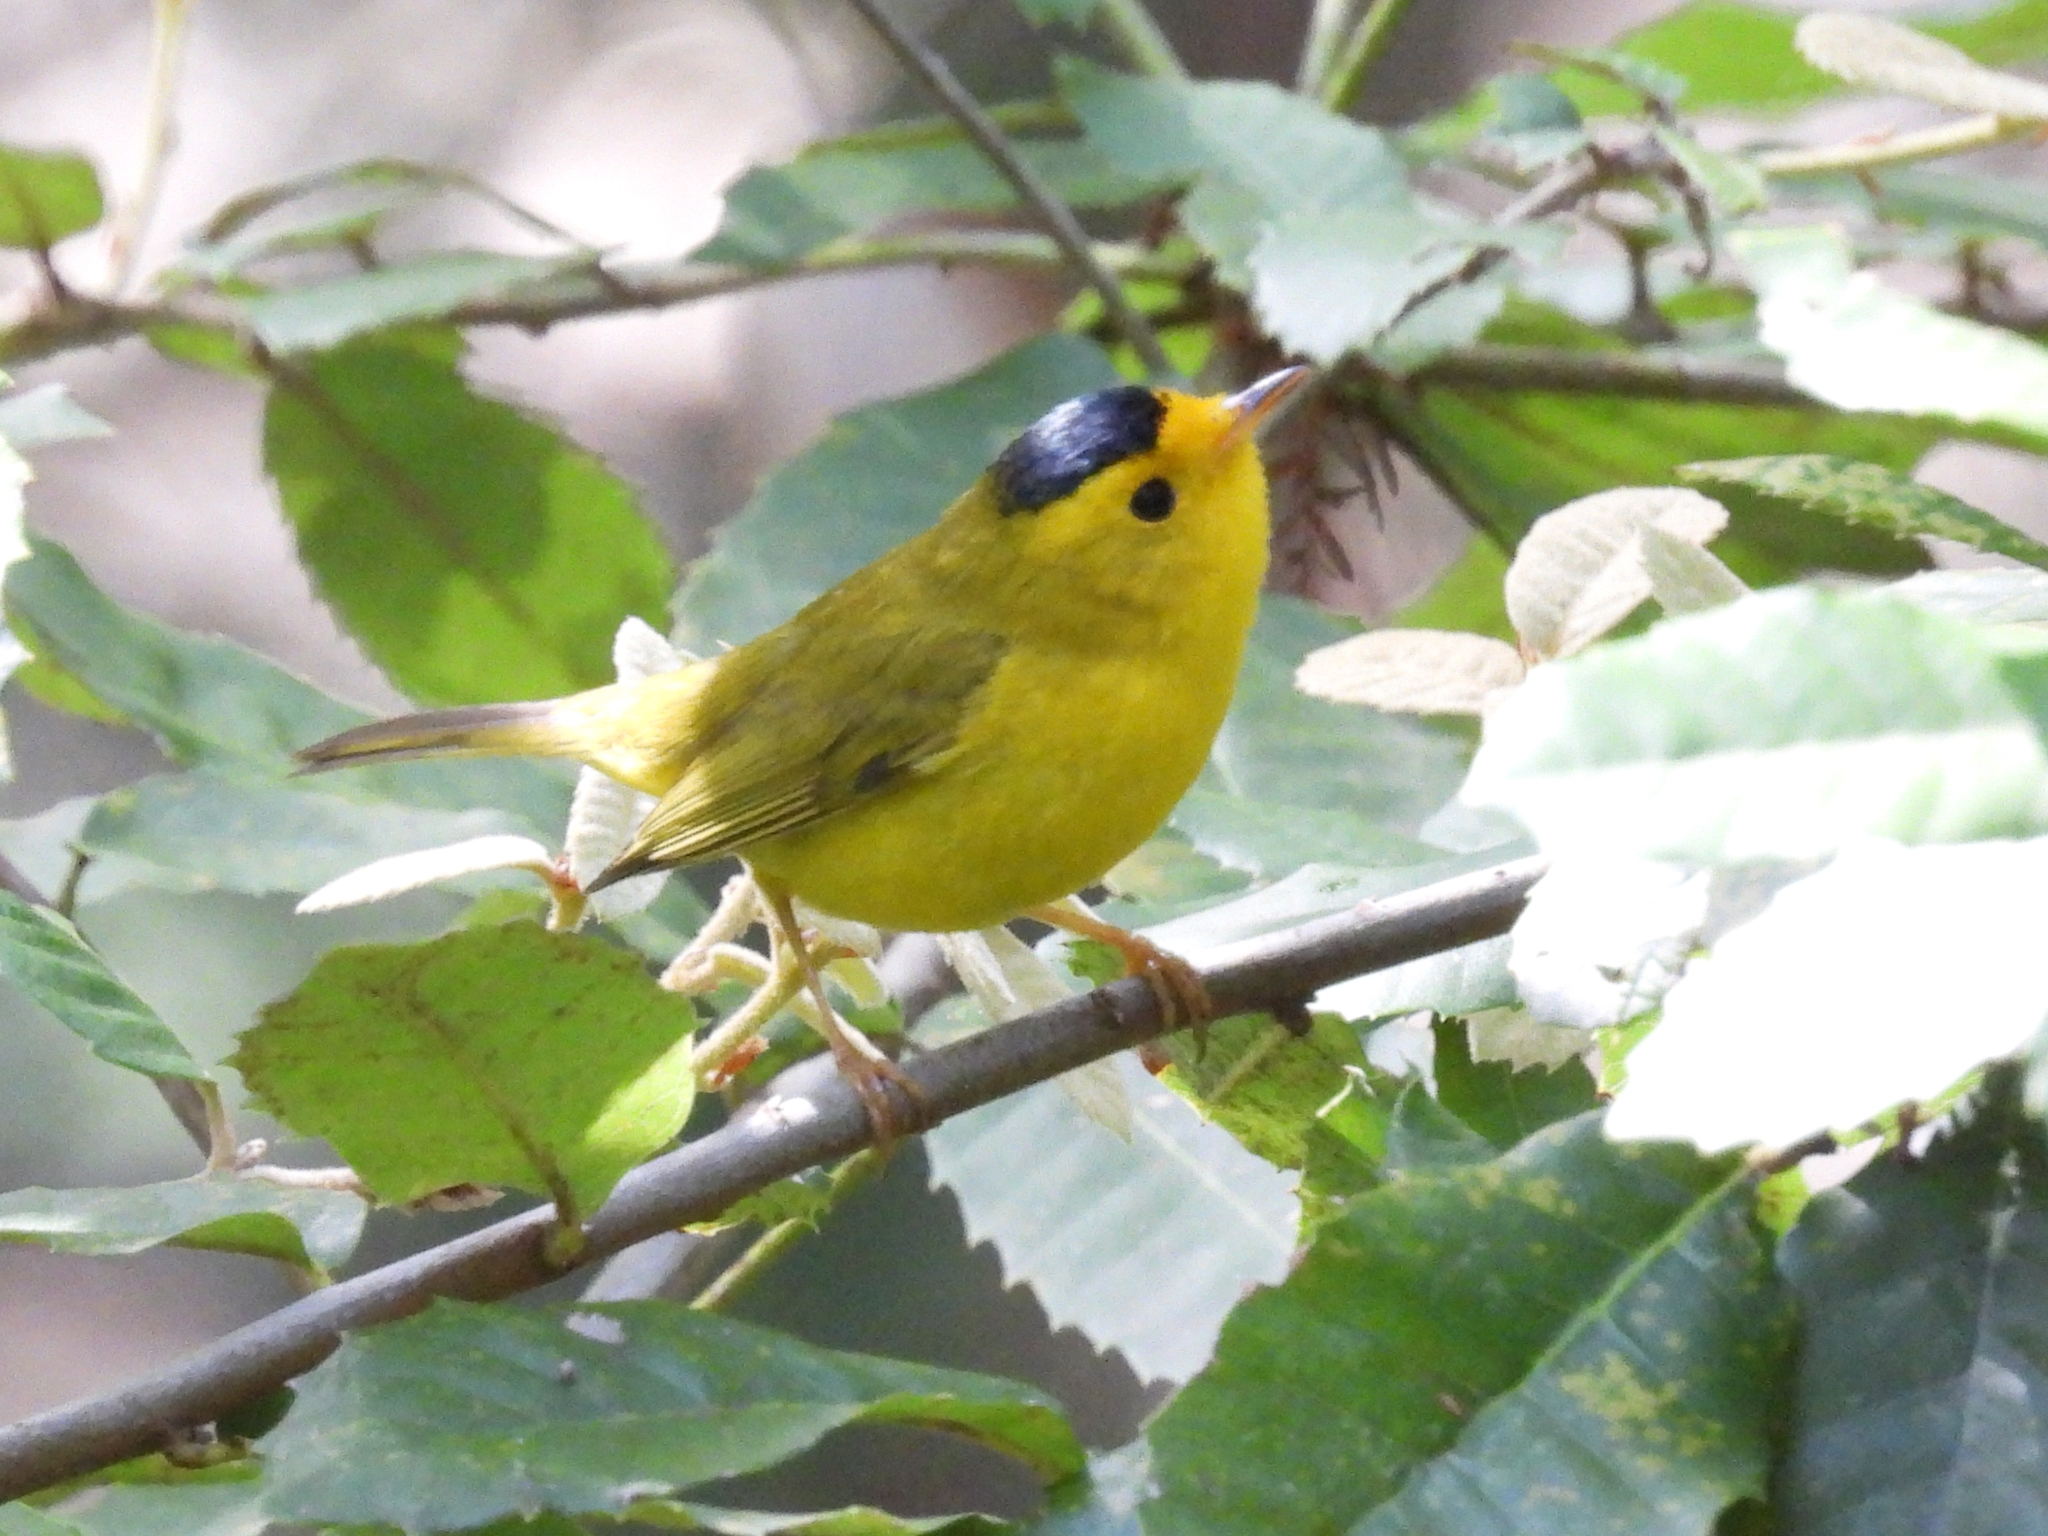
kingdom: Animalia
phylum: Chordata
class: Aves
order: Passeriformes
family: Parulidae
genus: Cardellina
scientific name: Cardellina pusilla
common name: Wilson's warbler
